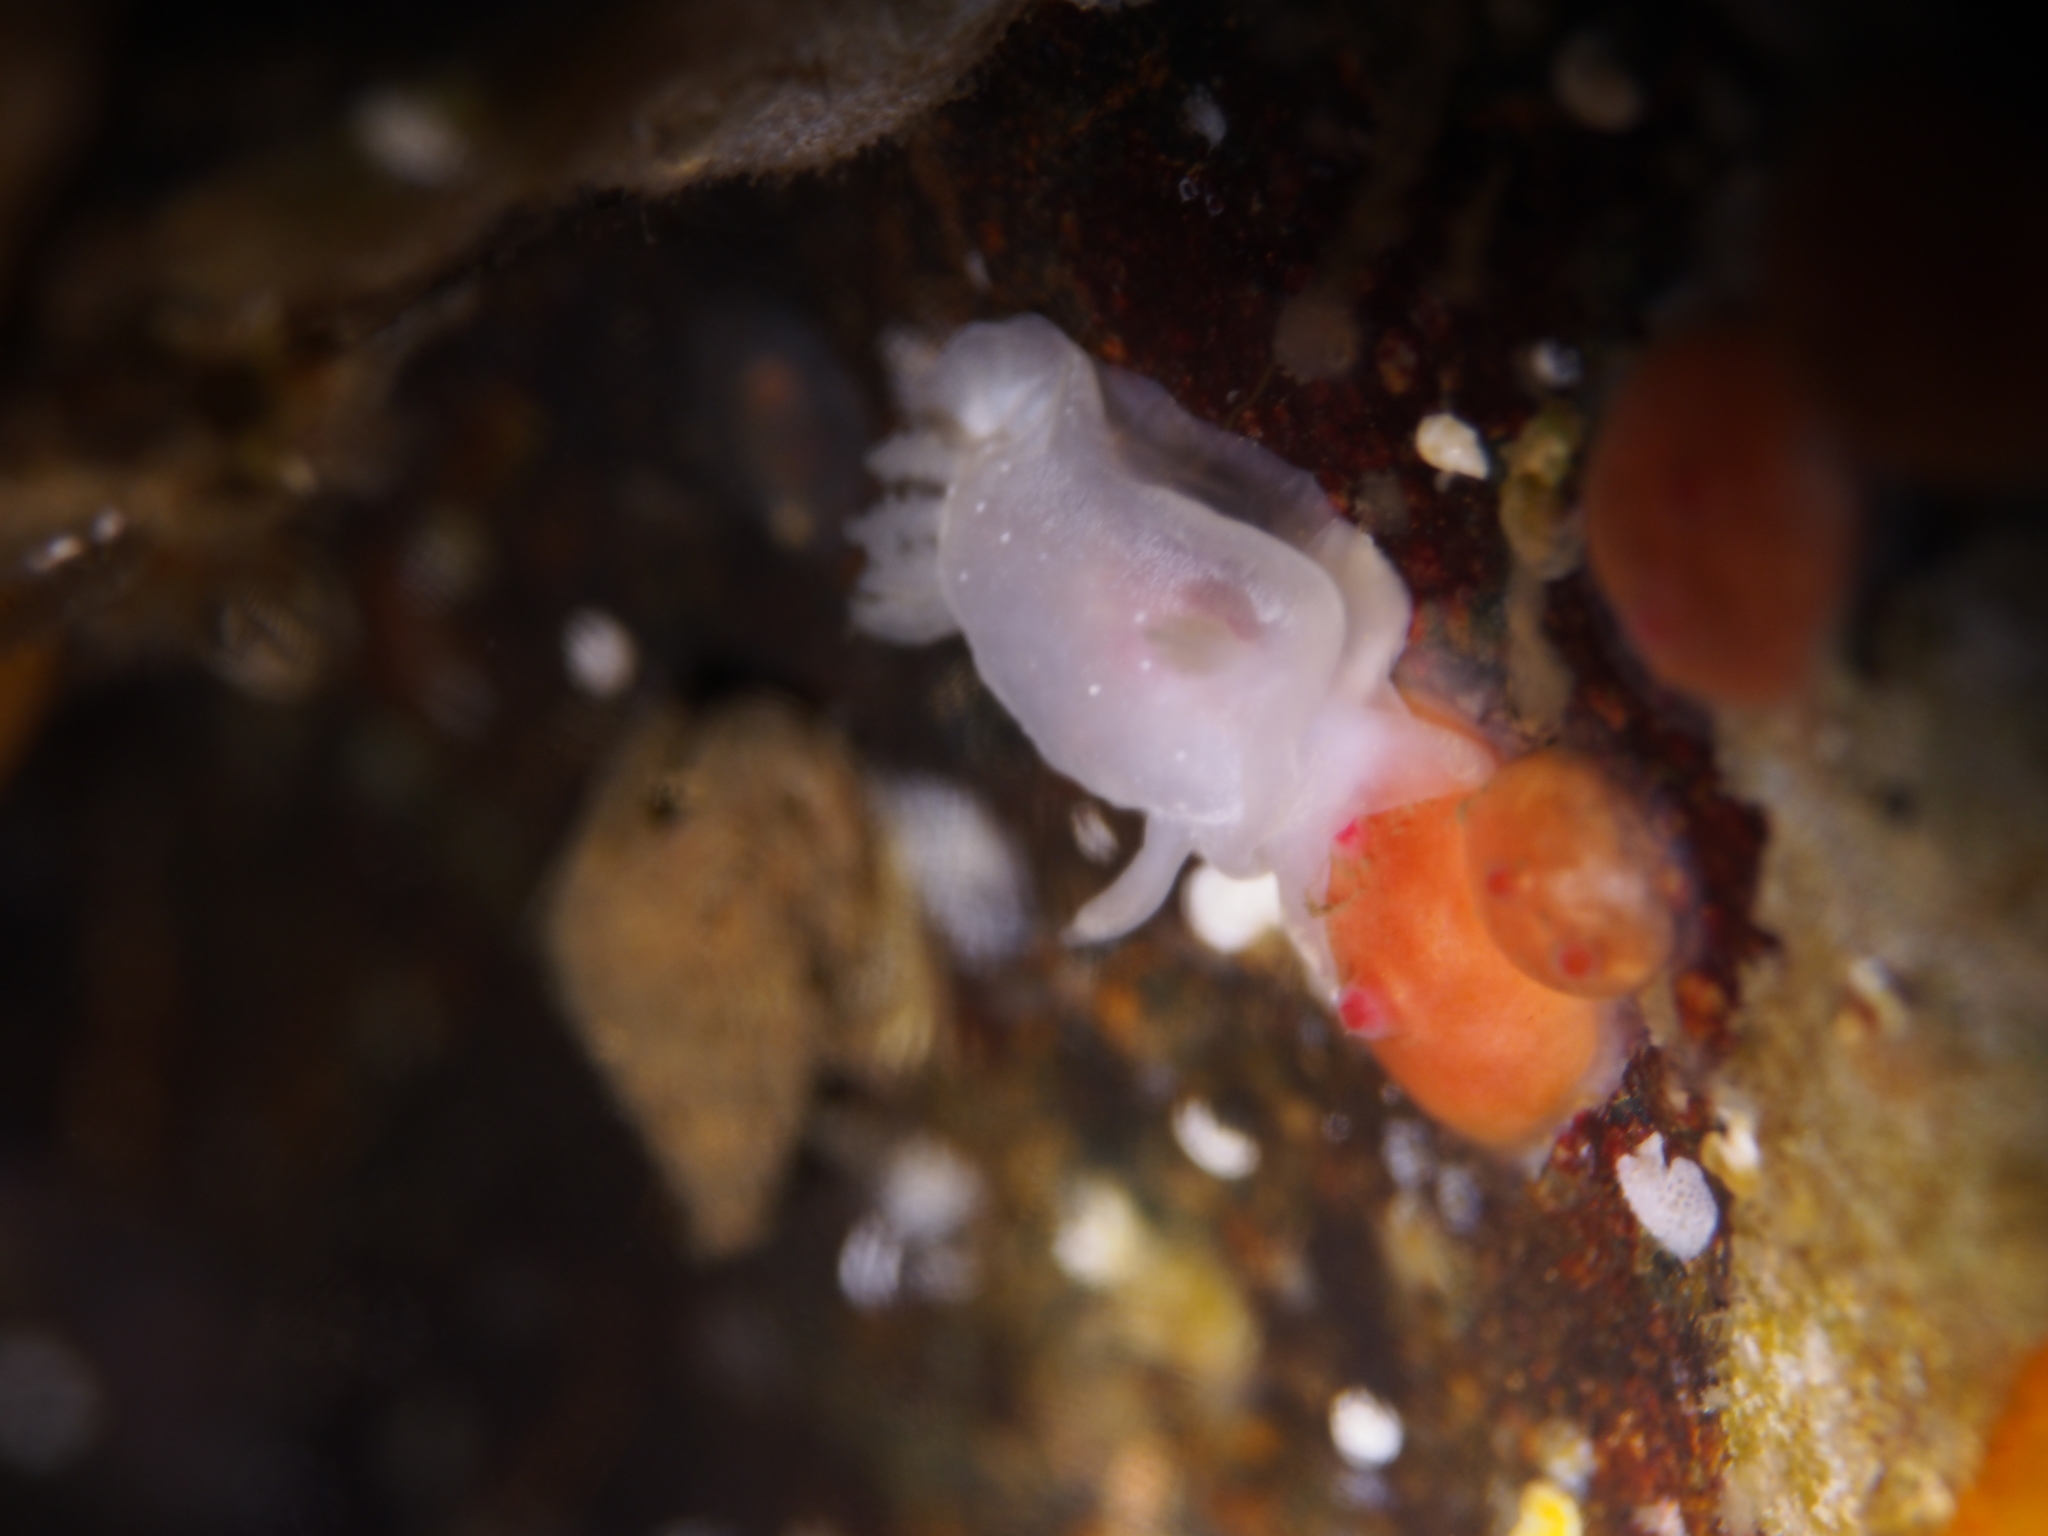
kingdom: Animalia
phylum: Mollusca
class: Gastropoda
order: Nudibranchia
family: Goniodorididae
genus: Okenia
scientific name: Okenia
